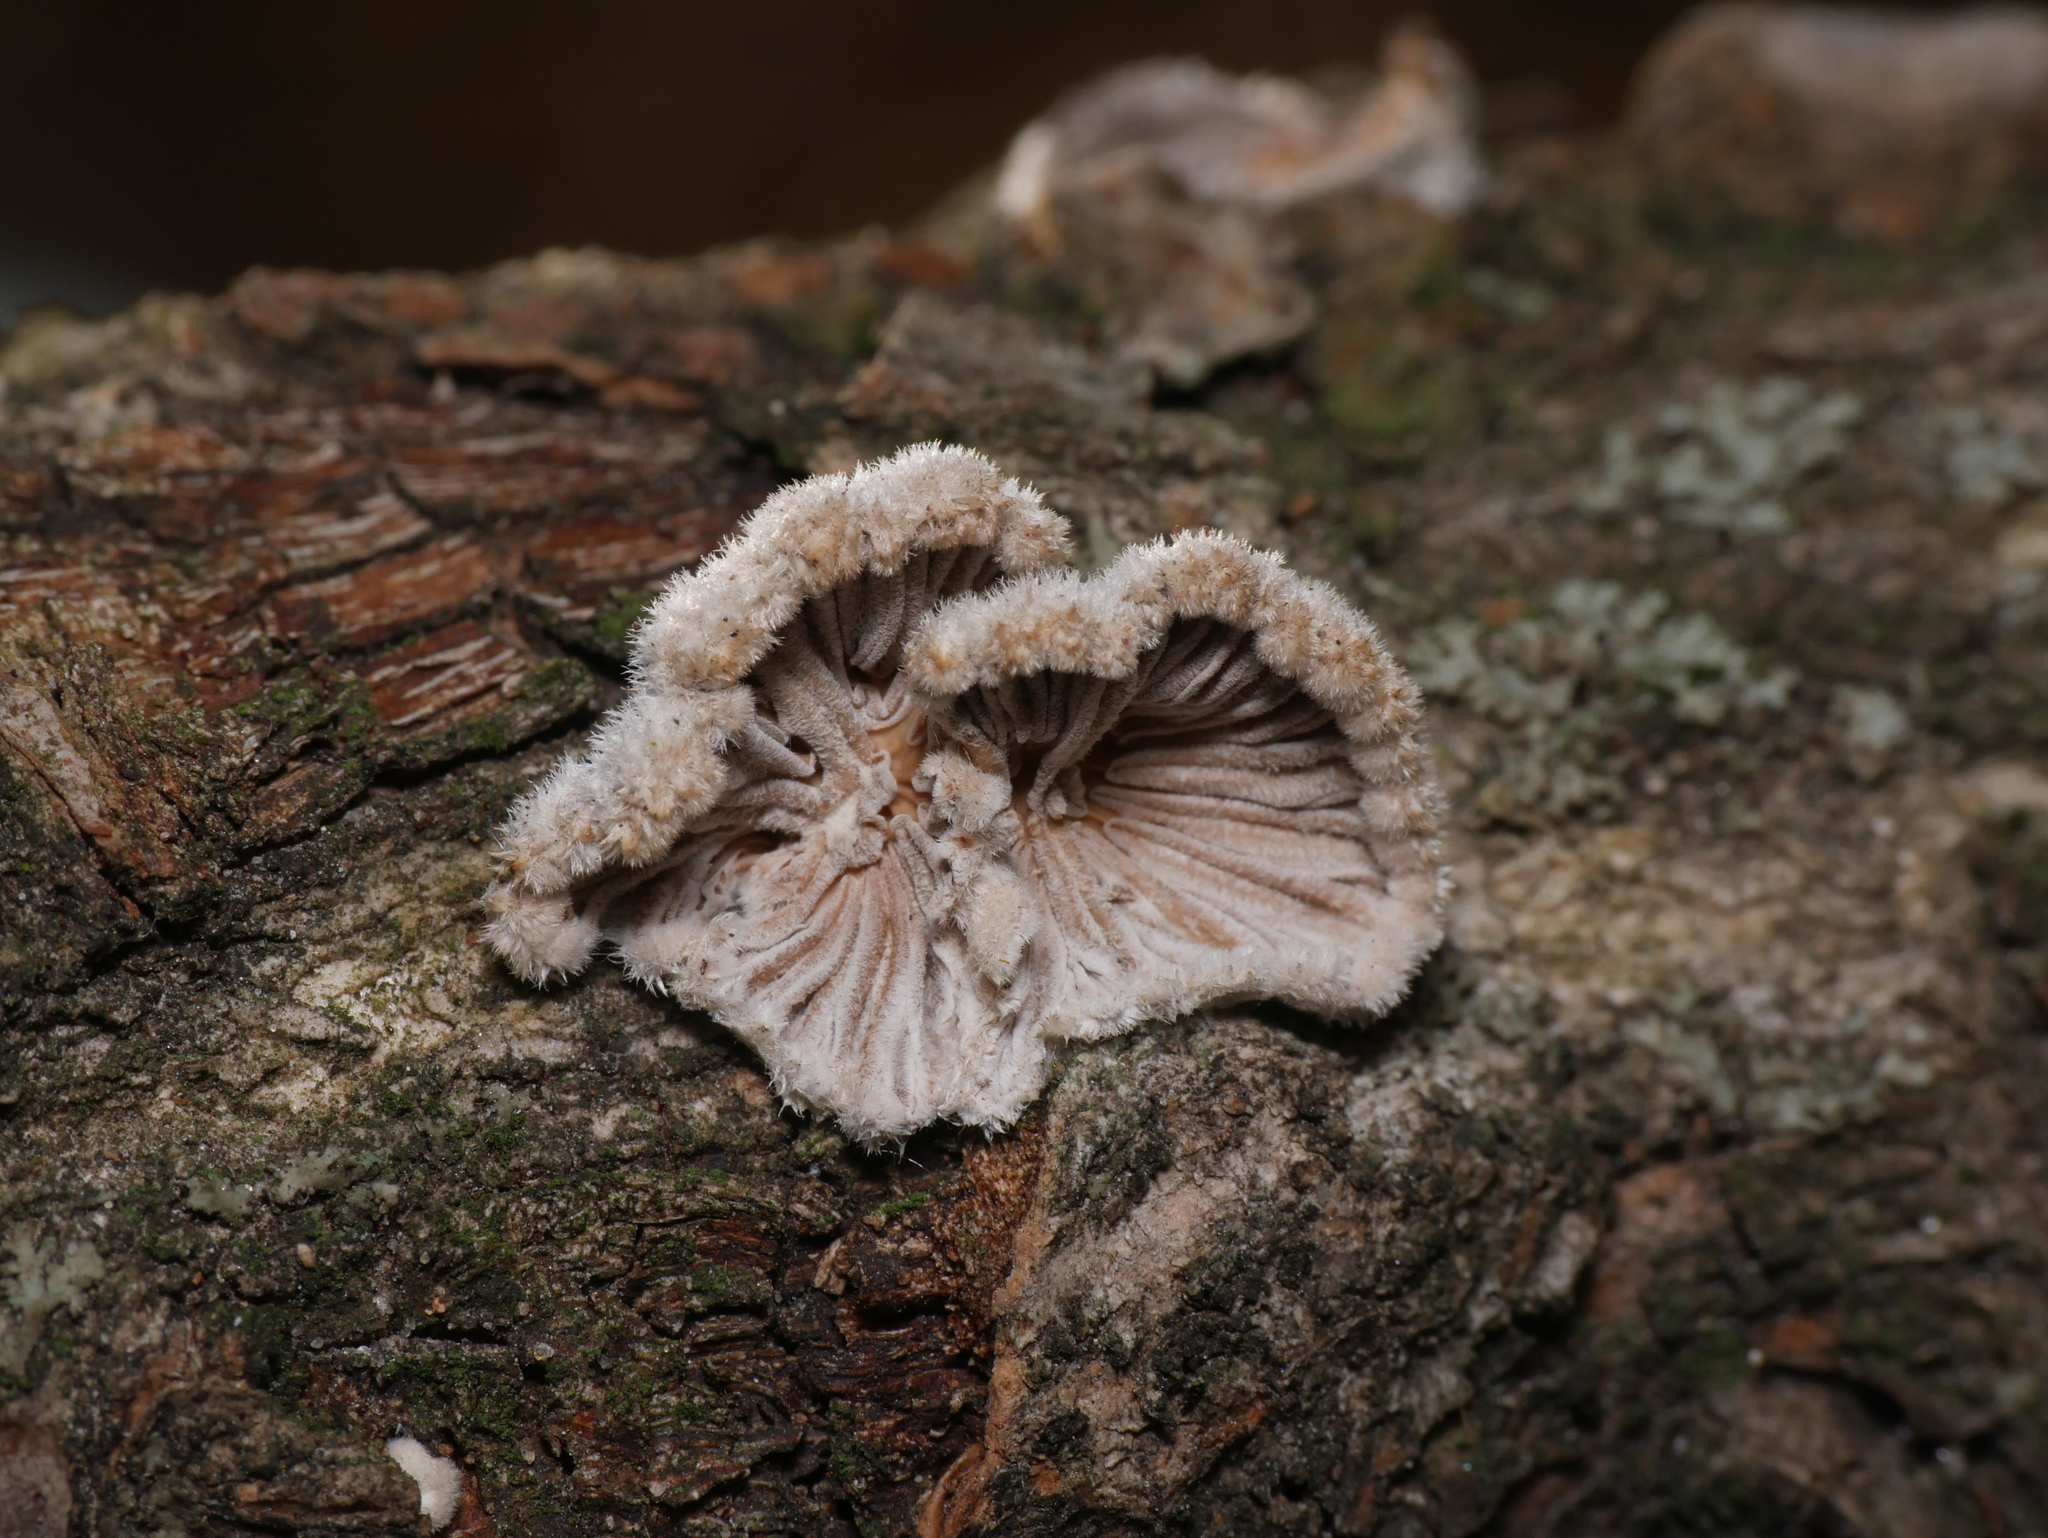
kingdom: Fungi
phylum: Basidiomycota
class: Agaricomycetes
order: Agaricales
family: Schizophyllaceae
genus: Schizophyllum
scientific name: Schizophyllum commune
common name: Common porecrust
